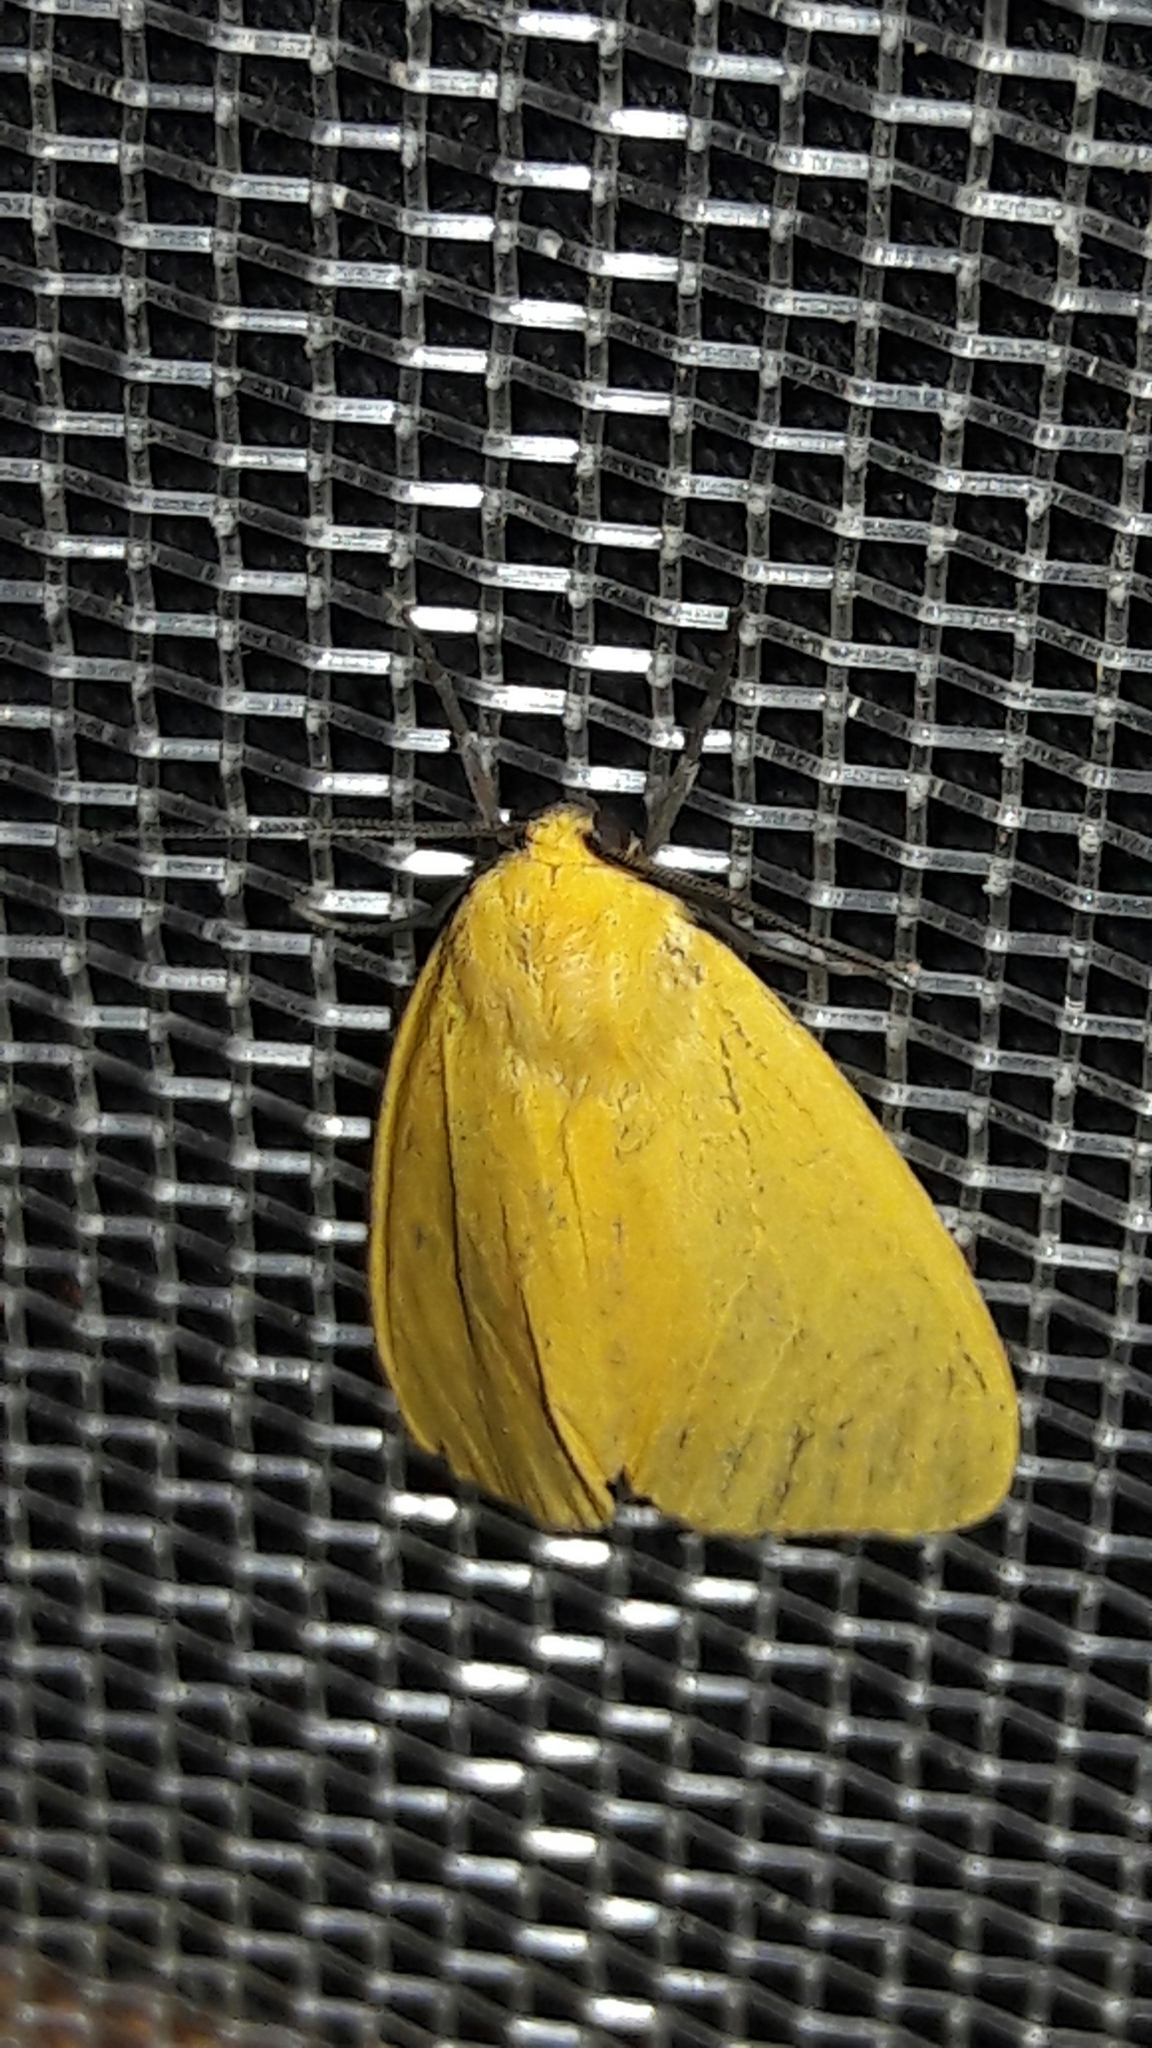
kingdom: Animalia
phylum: Arthropoda
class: Insecta
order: Lepidoptera
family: Erebidae
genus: Pareuchaetes
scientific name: Pareuchaetes aurata
